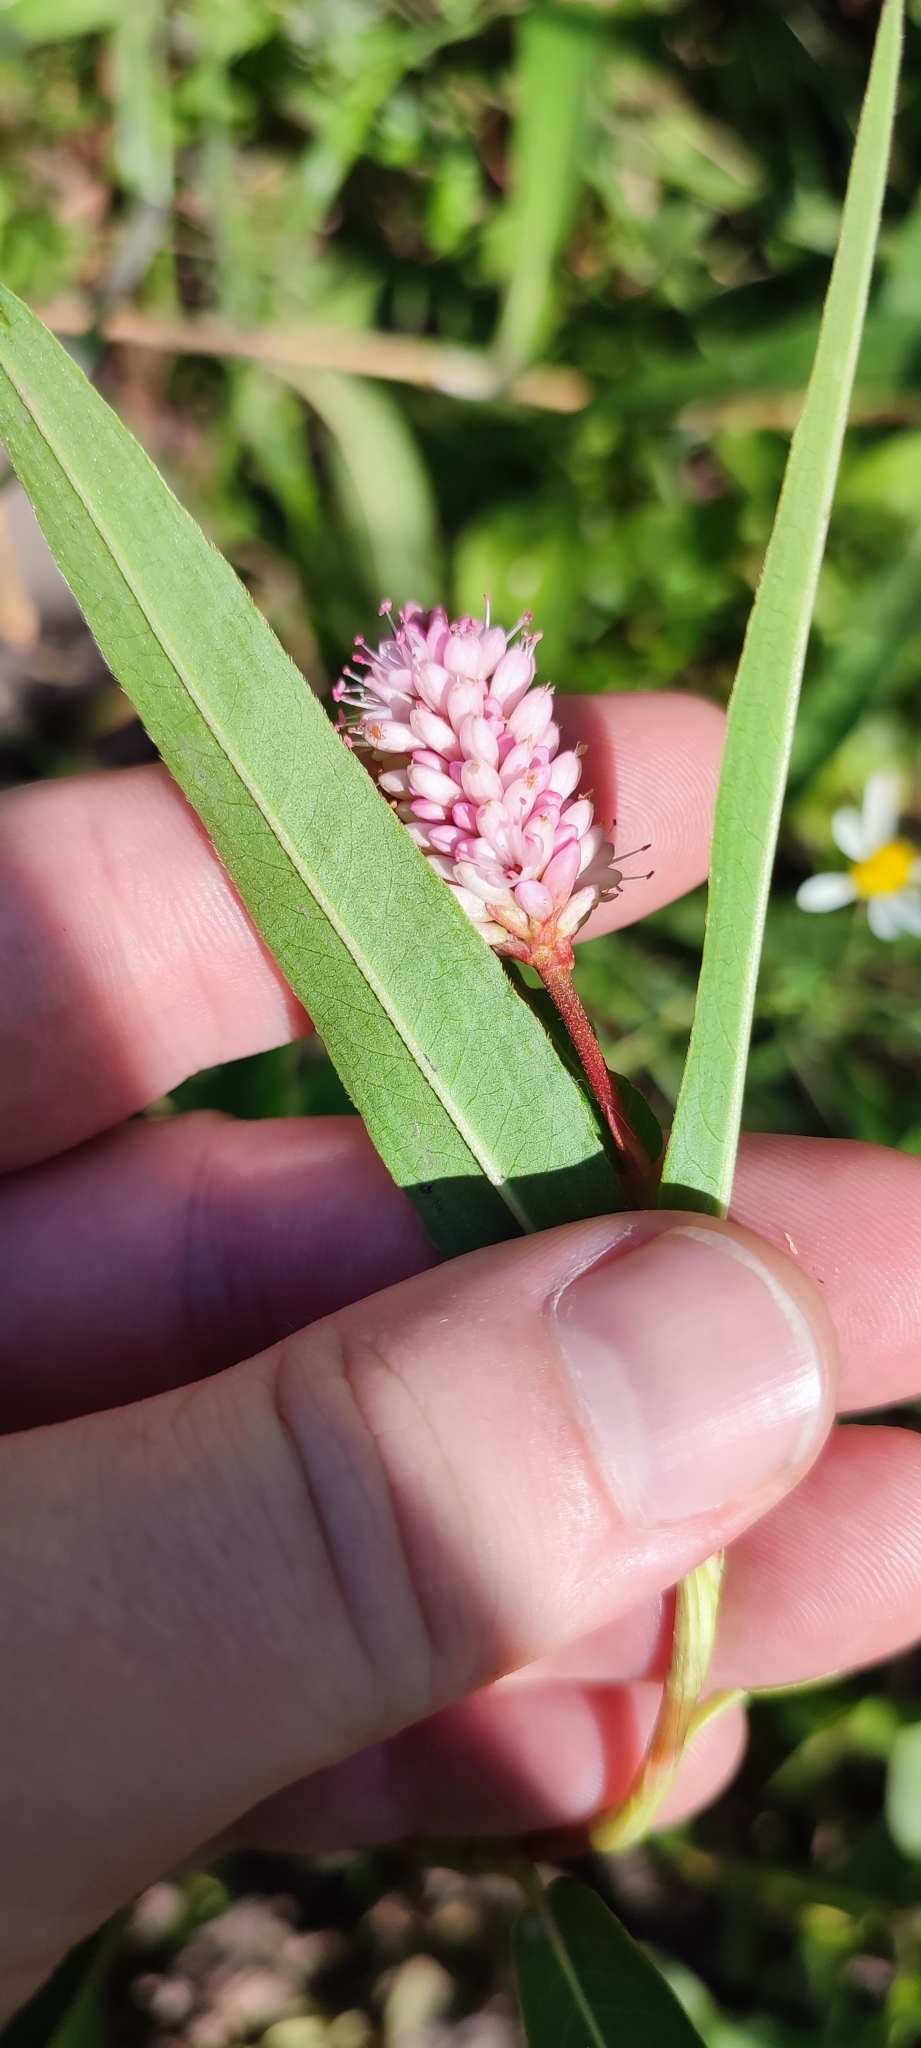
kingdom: Plantae
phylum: Tracheophyta
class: Magnoliopsida
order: Caryophyllales
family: Polygonaceae
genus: Persicaria
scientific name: Persicaria amphibia
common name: Amphibious bistort
